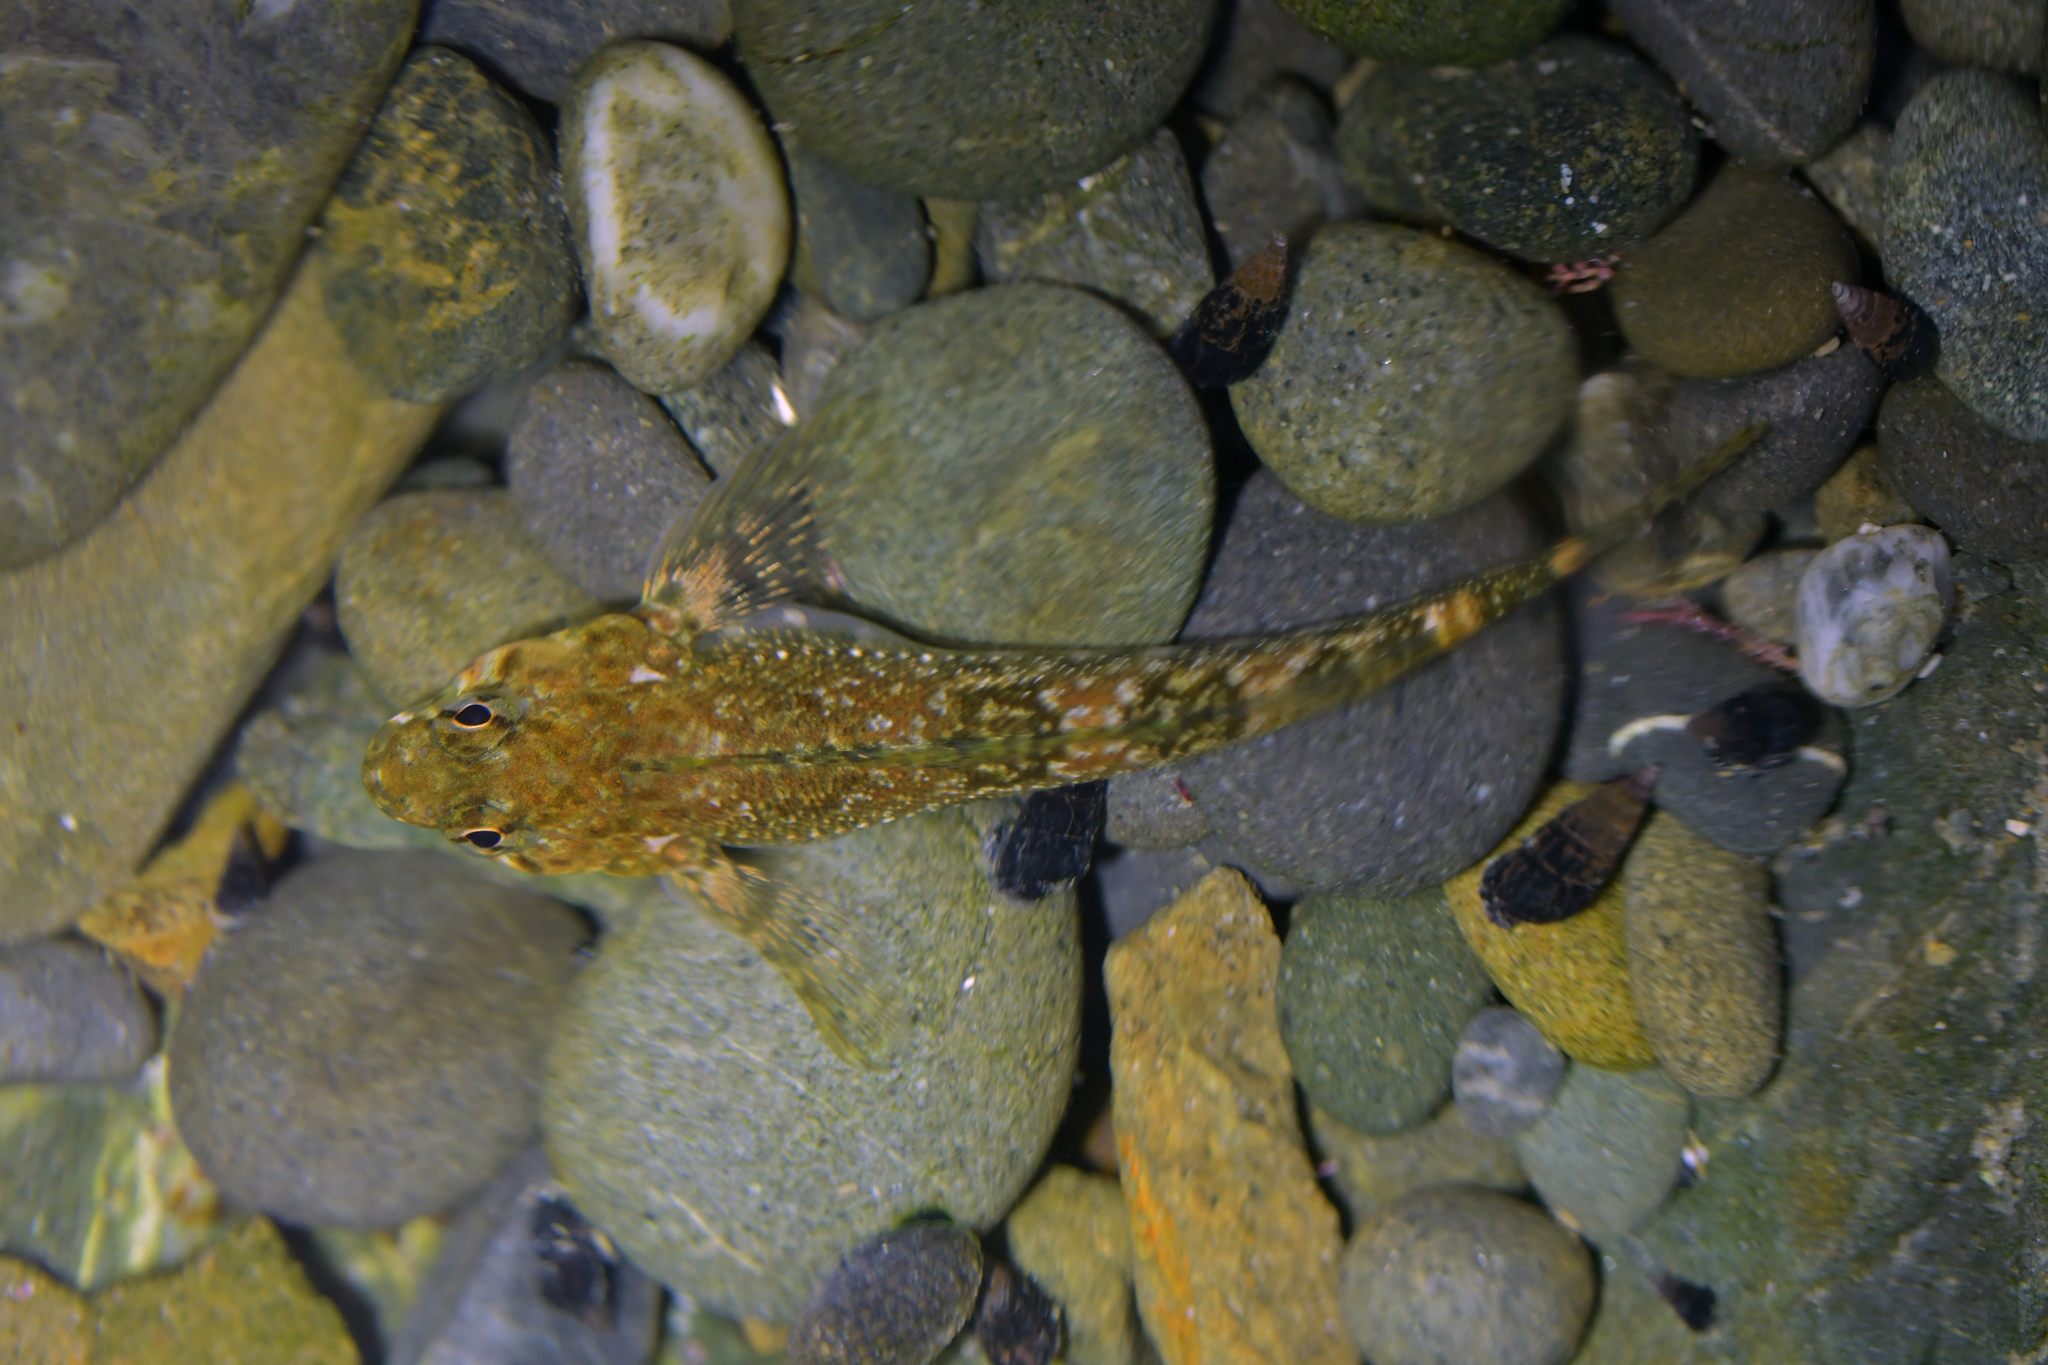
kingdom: Animalia
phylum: Chordata
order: Perciformes
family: Tripterygiidae
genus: Bellapiscis
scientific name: Bellapiscis medius
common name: Twister
